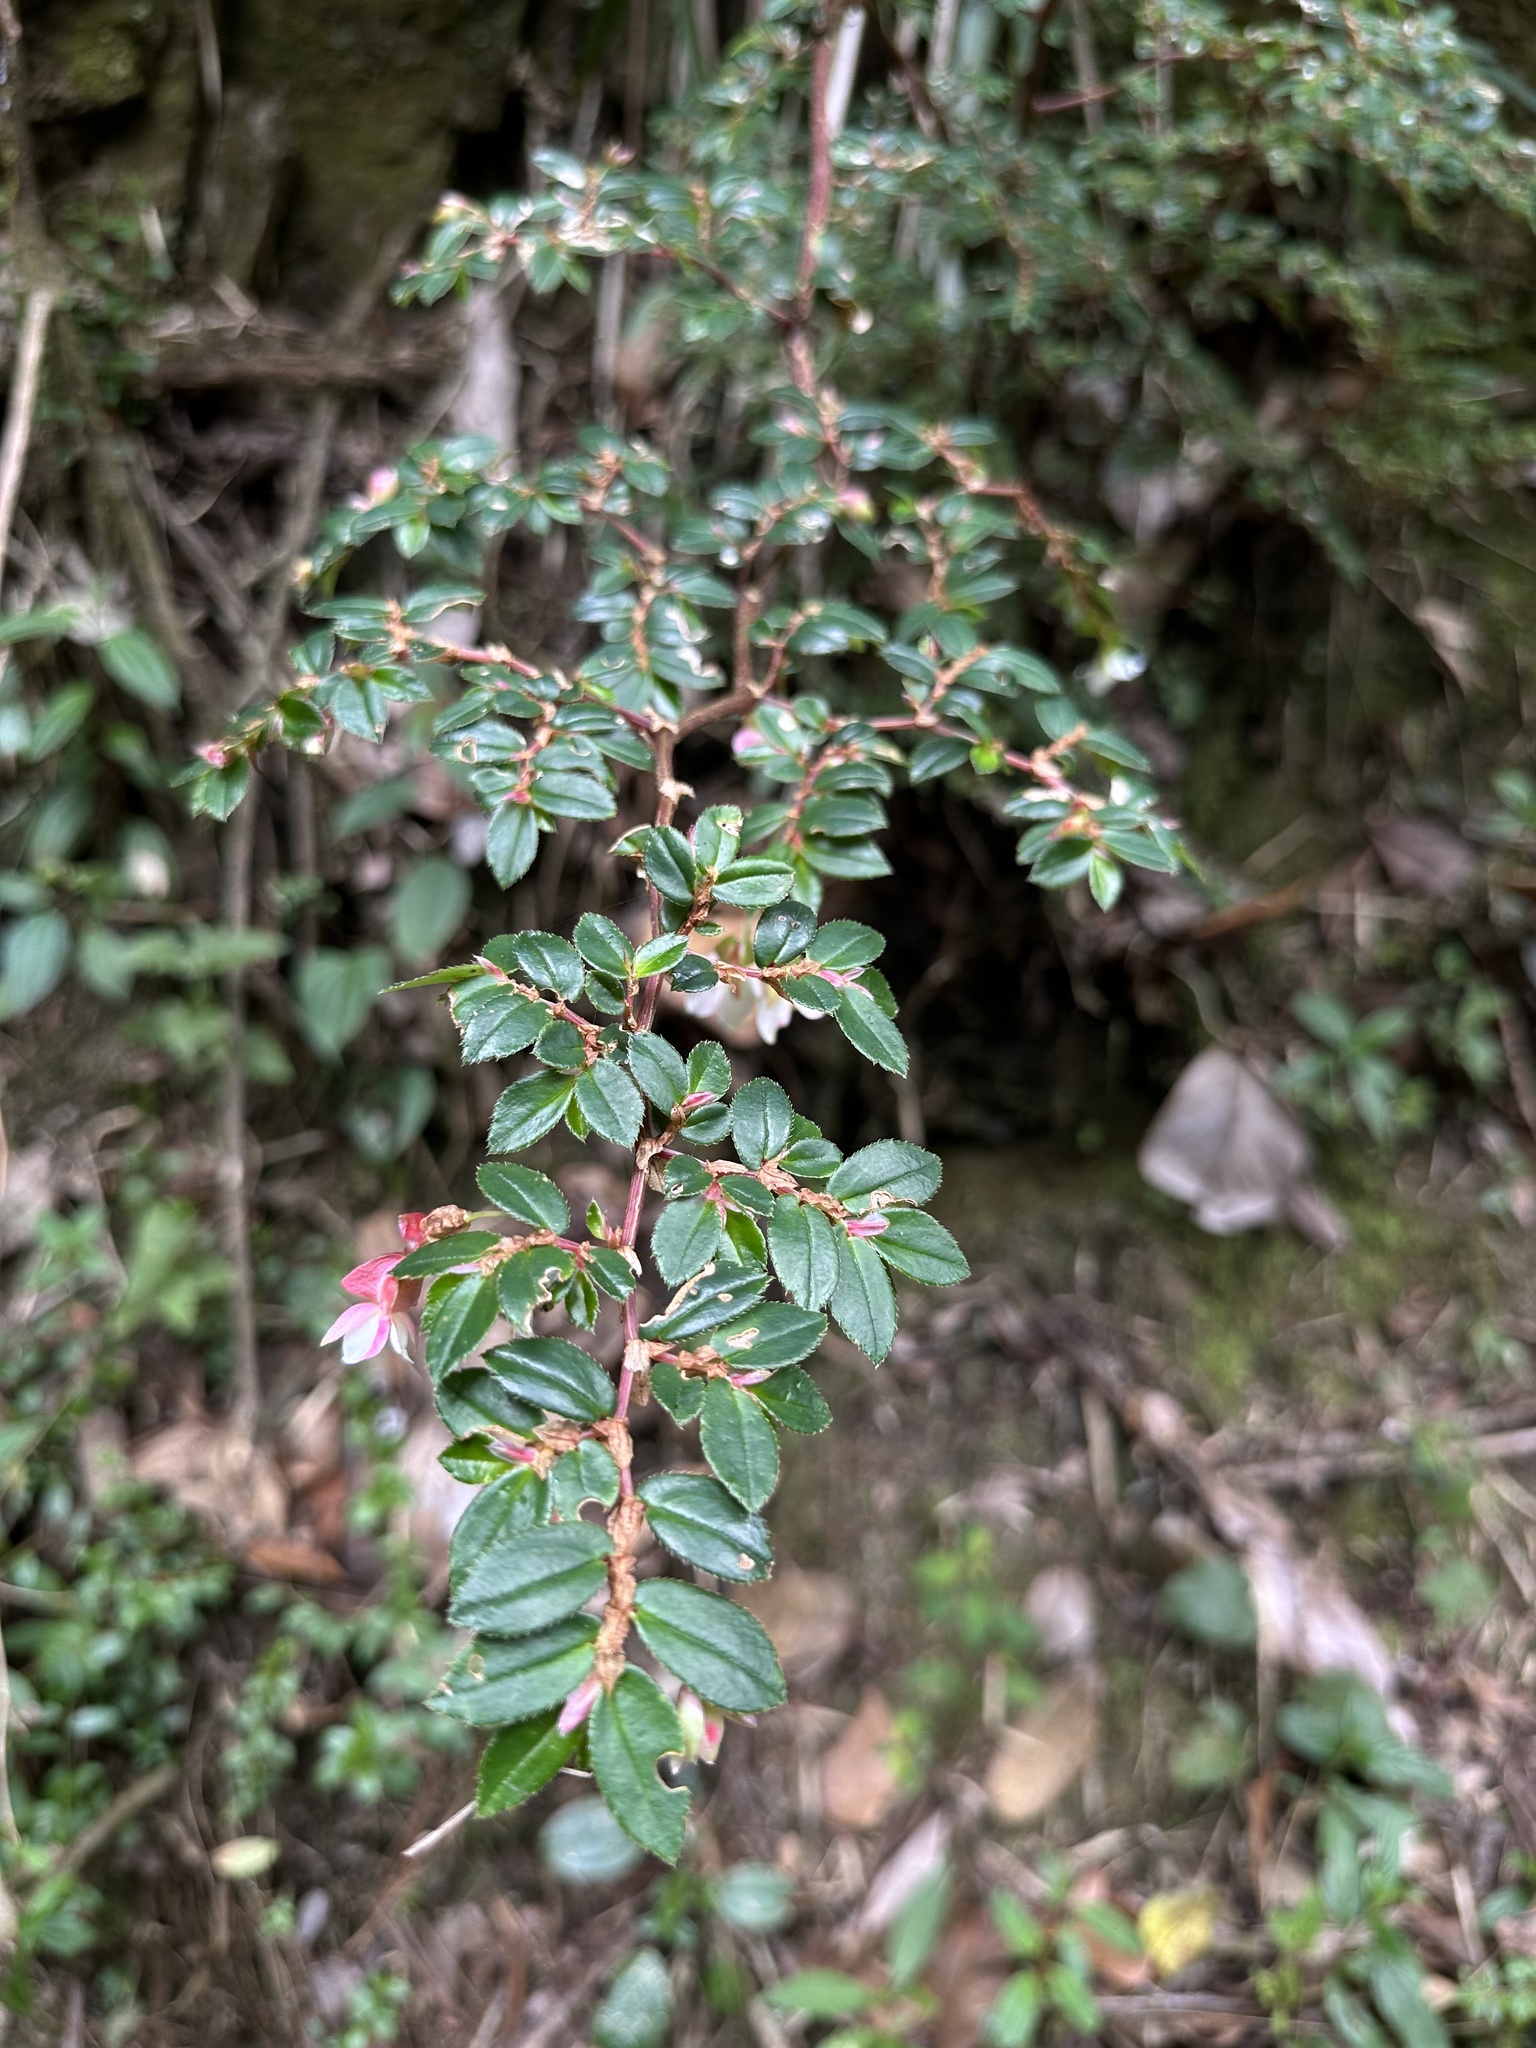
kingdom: Plantae
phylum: Tracheophyta
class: Magnoliopsida
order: Cucurbitales
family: Begoniaceae
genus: Begonia
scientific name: Begonia foliosa
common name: Fern begonia
